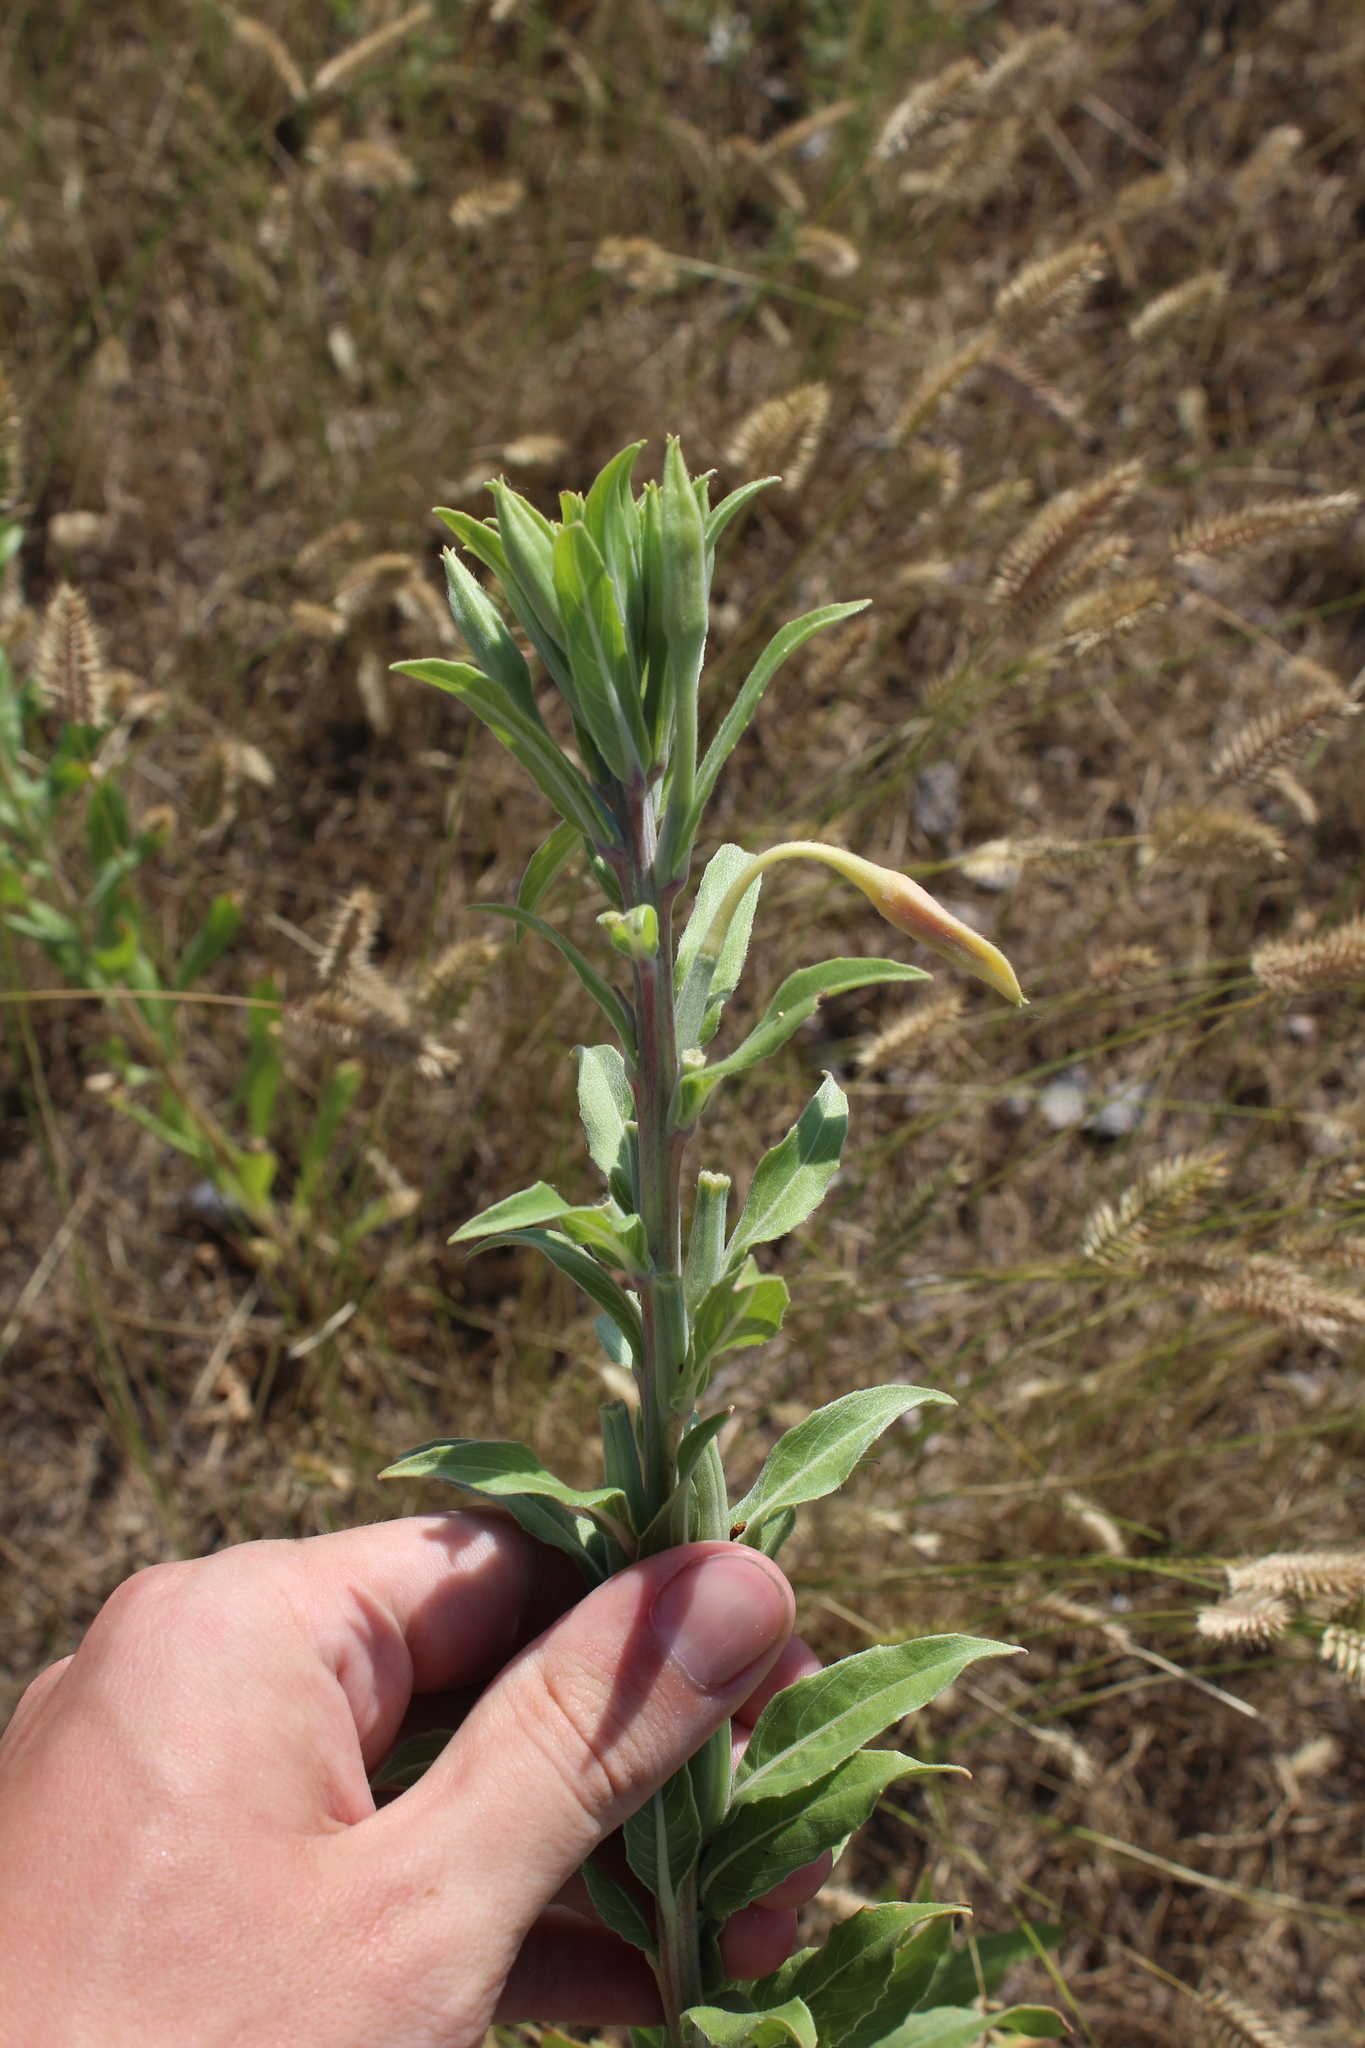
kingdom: Plantae
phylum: Tracheophyta
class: Magnoliopsida
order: Myrtales
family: Onagraceae
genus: Oenothera
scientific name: Oenothera villosa
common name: Hairy evening-primrose
